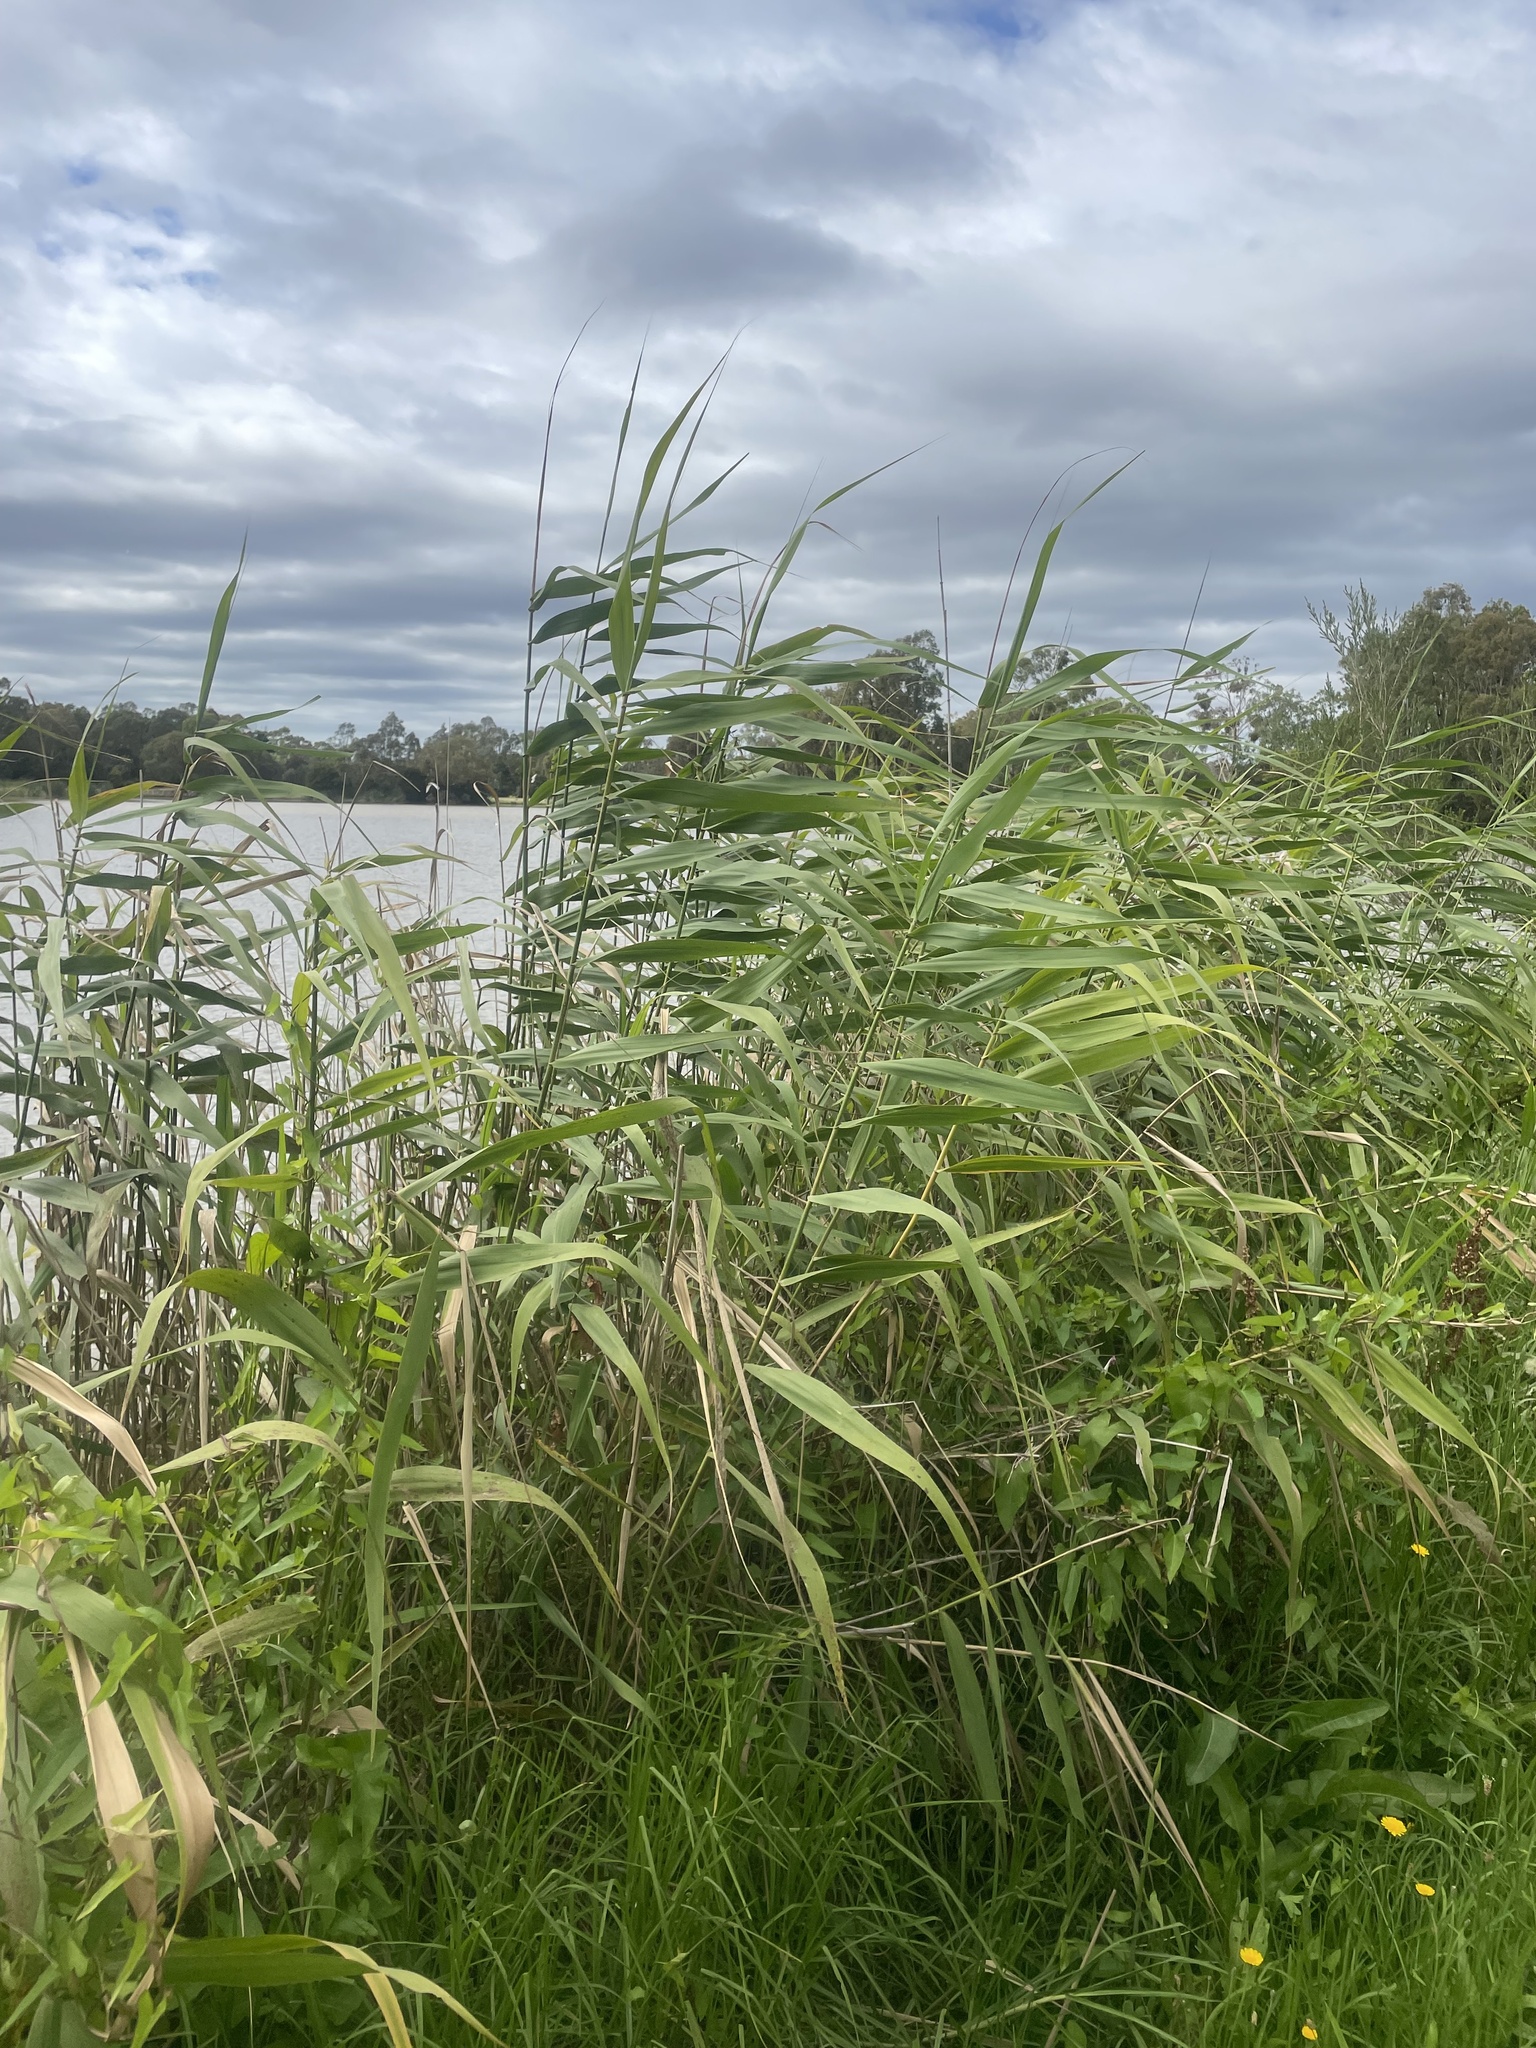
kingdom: Plantae
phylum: Tracheophyta
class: Liliopsida
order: Poales
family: Poaceae
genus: Phragmites
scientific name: Phragmites australis
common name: Common reed
